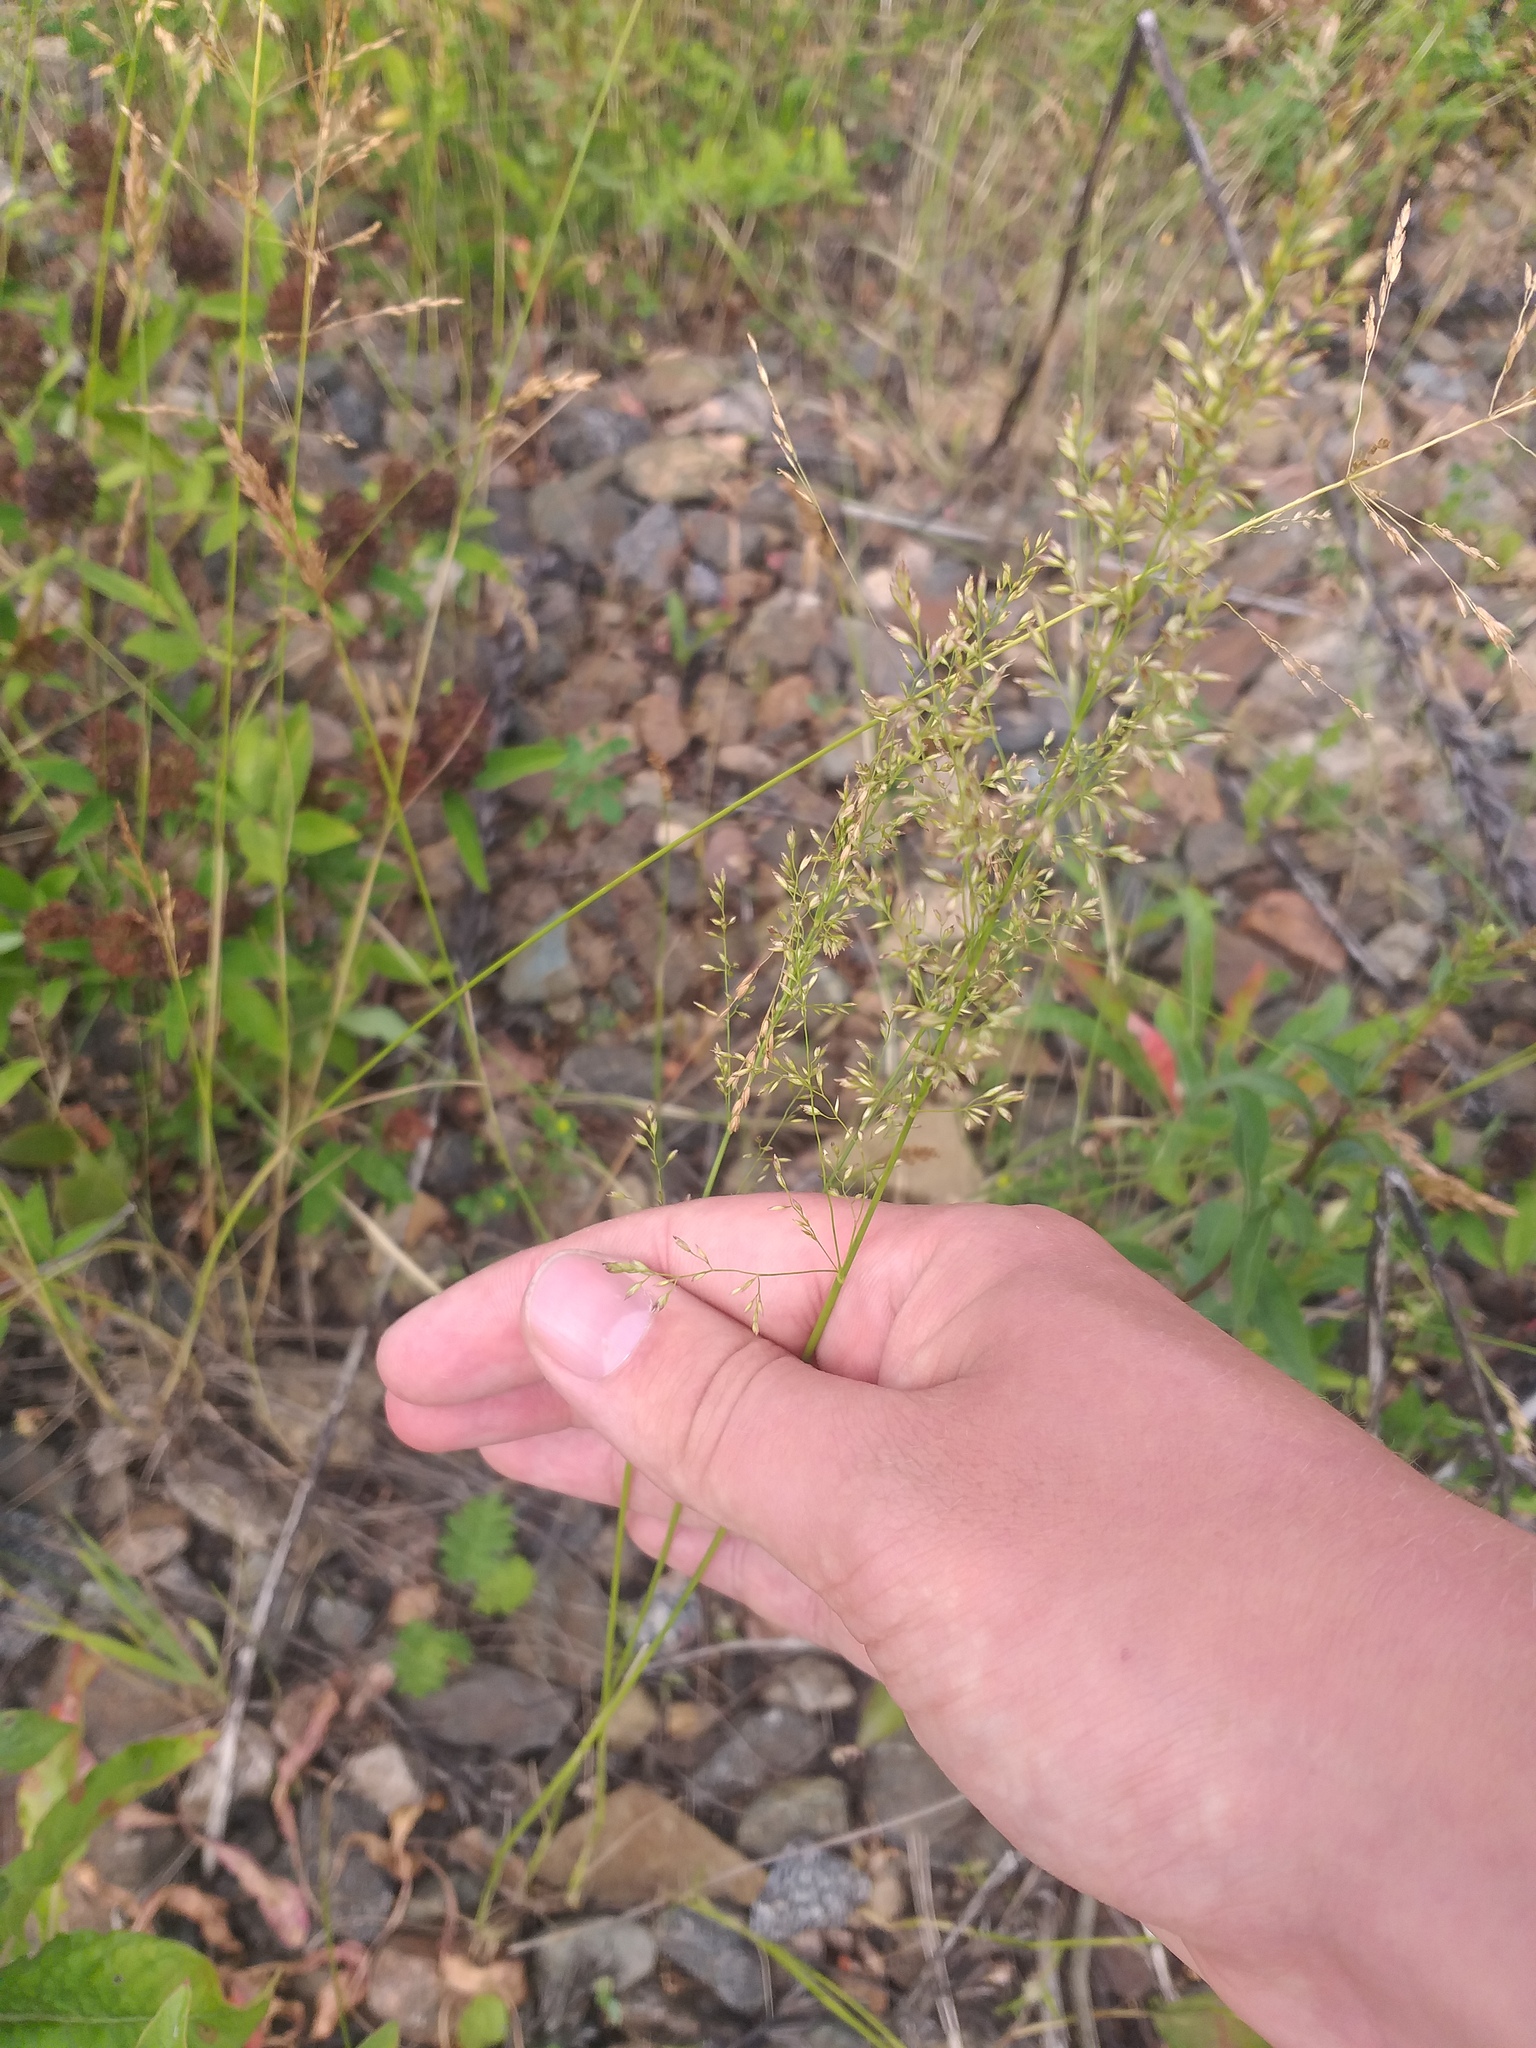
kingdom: Plantae
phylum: Tracheophyta
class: Liliopsida
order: Poales
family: Poaceae
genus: Poa
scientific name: Poa palustris
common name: Swamp meadow-grass
